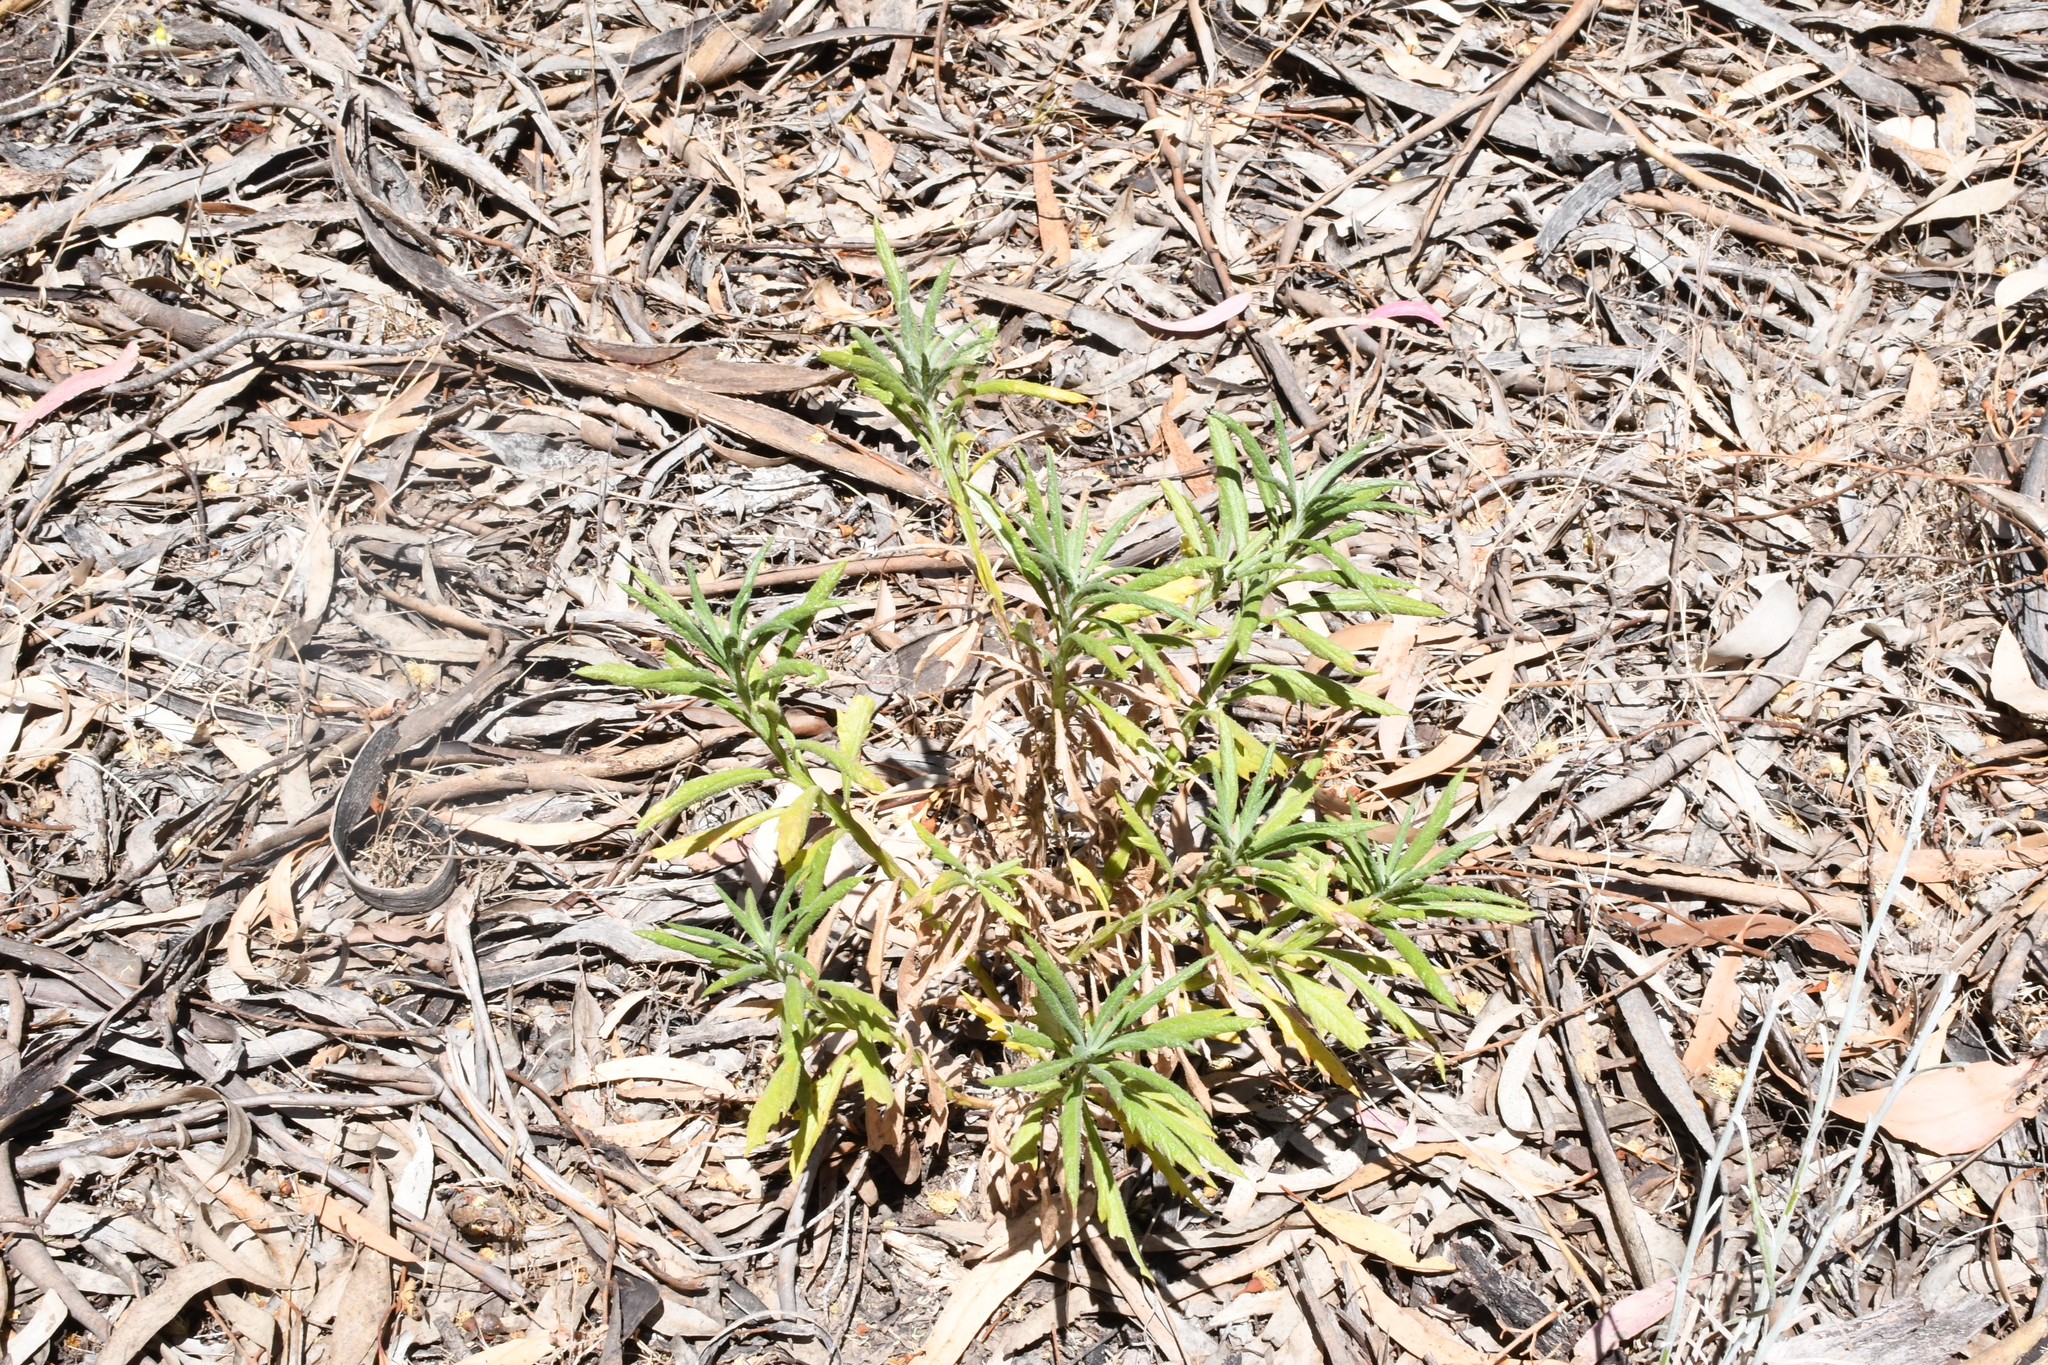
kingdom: Plantae
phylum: Tracheophyta
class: Magnoliopsida
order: Asterales
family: Asteraceae
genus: Senecio
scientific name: Senecio pterophorus
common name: Shoddy ragwort
